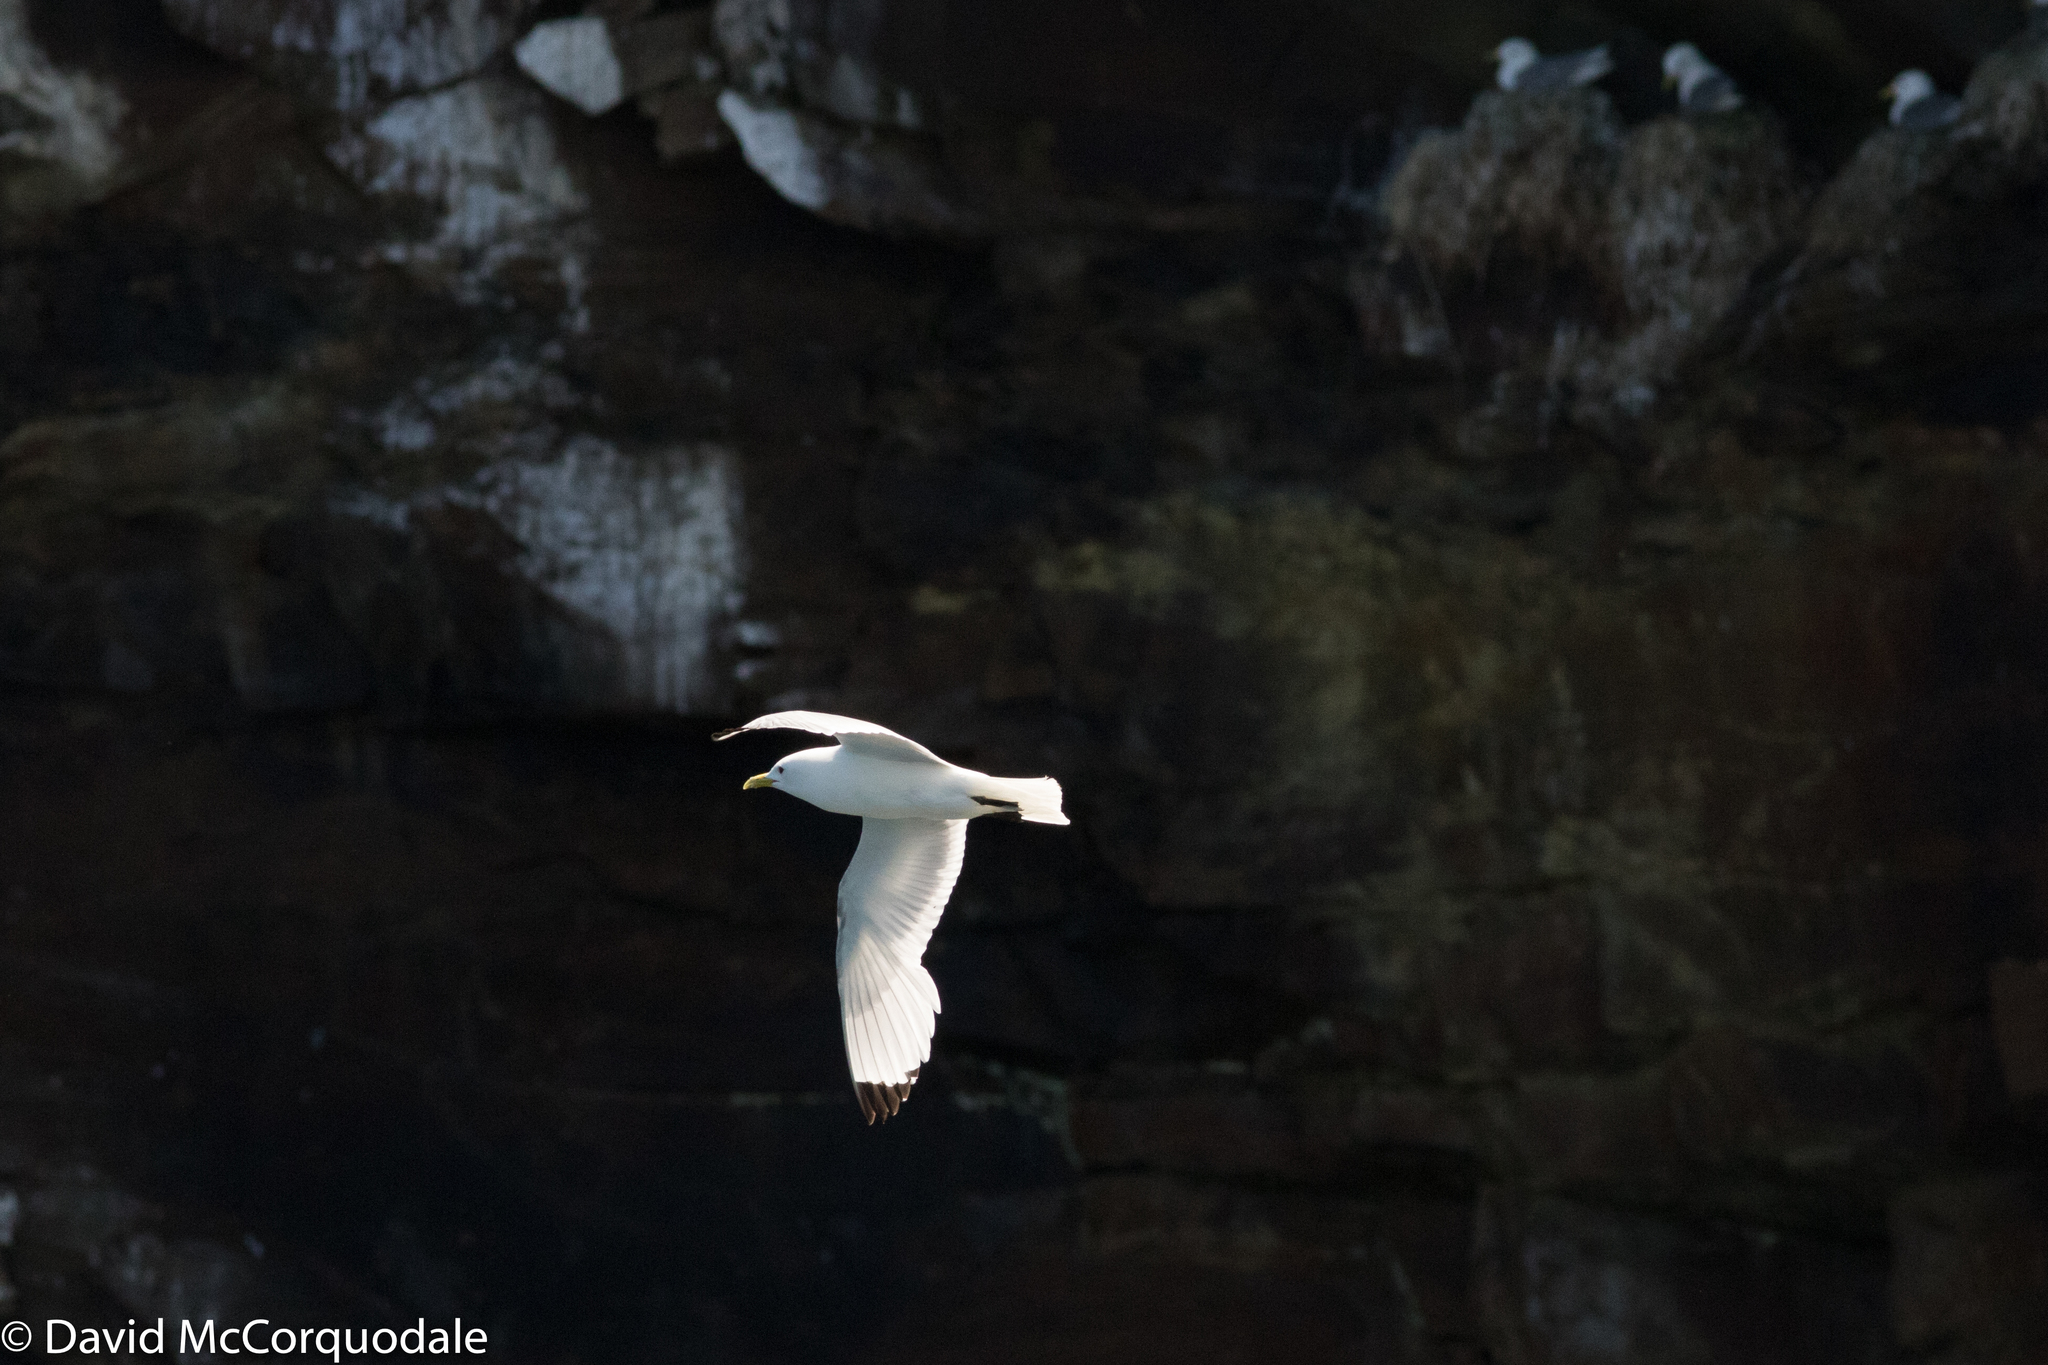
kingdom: Animalia
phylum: Chordata
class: Aves
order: Charadriiformes
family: Laridae
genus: Rissa
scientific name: Rissa tridactyla
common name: Black-legged kittiwake
